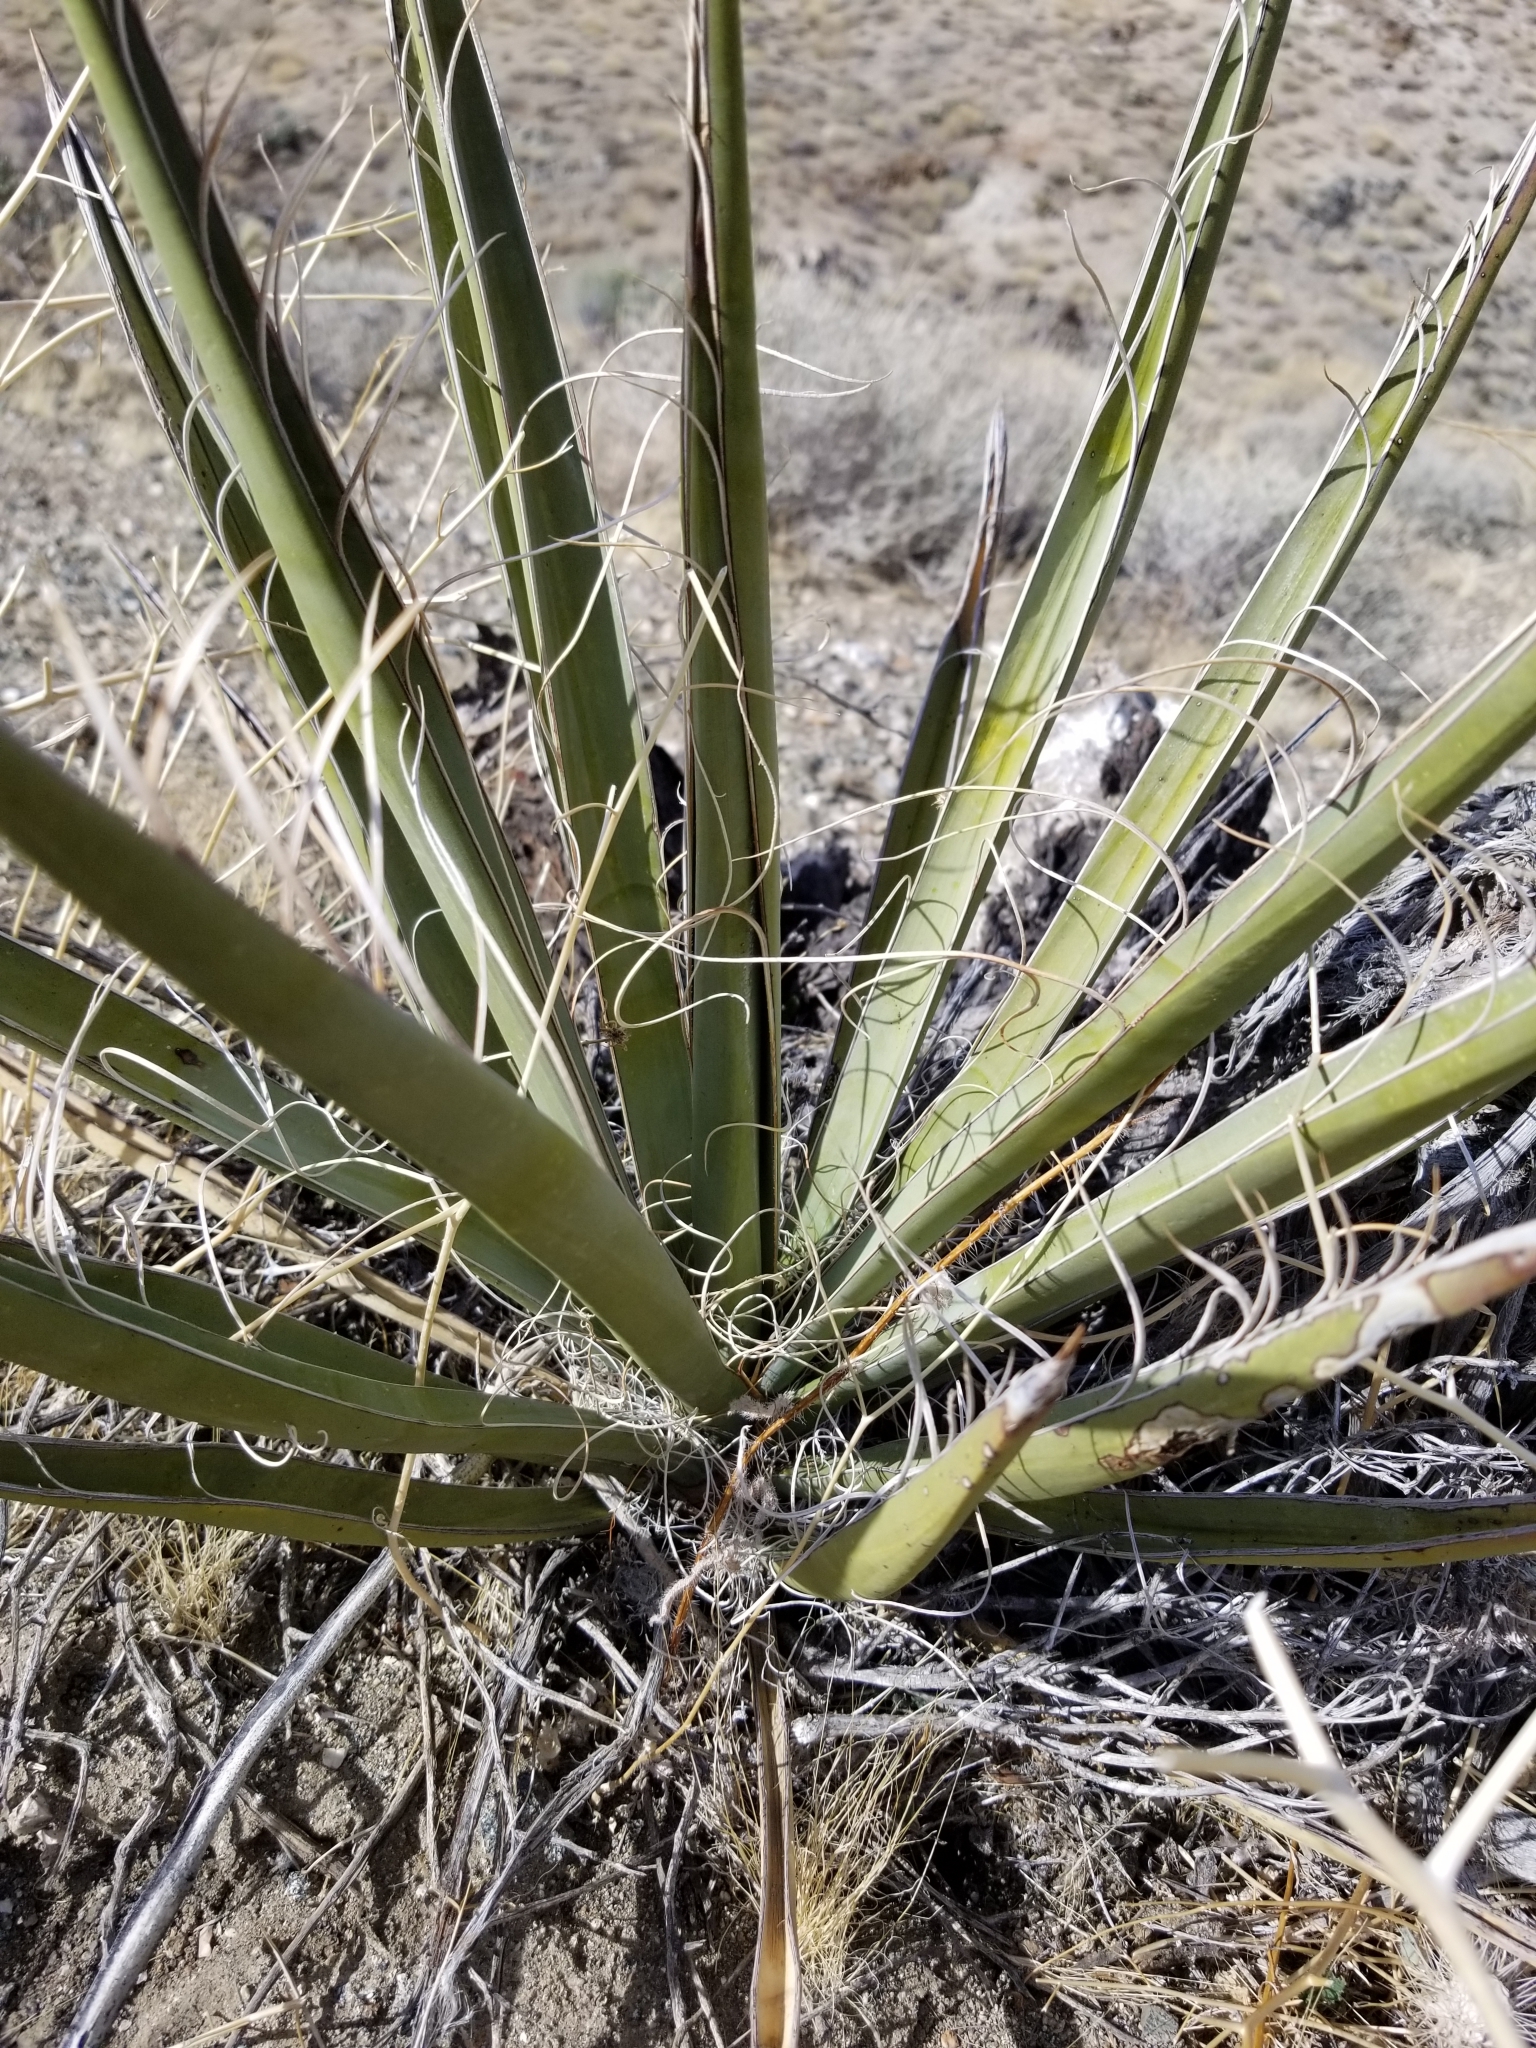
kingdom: Plantae
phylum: Tracheophyta
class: Liliopsida
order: Asparagales
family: Asparagaceae
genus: Yucca
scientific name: Yucca schidigera
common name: Mojave yucca
